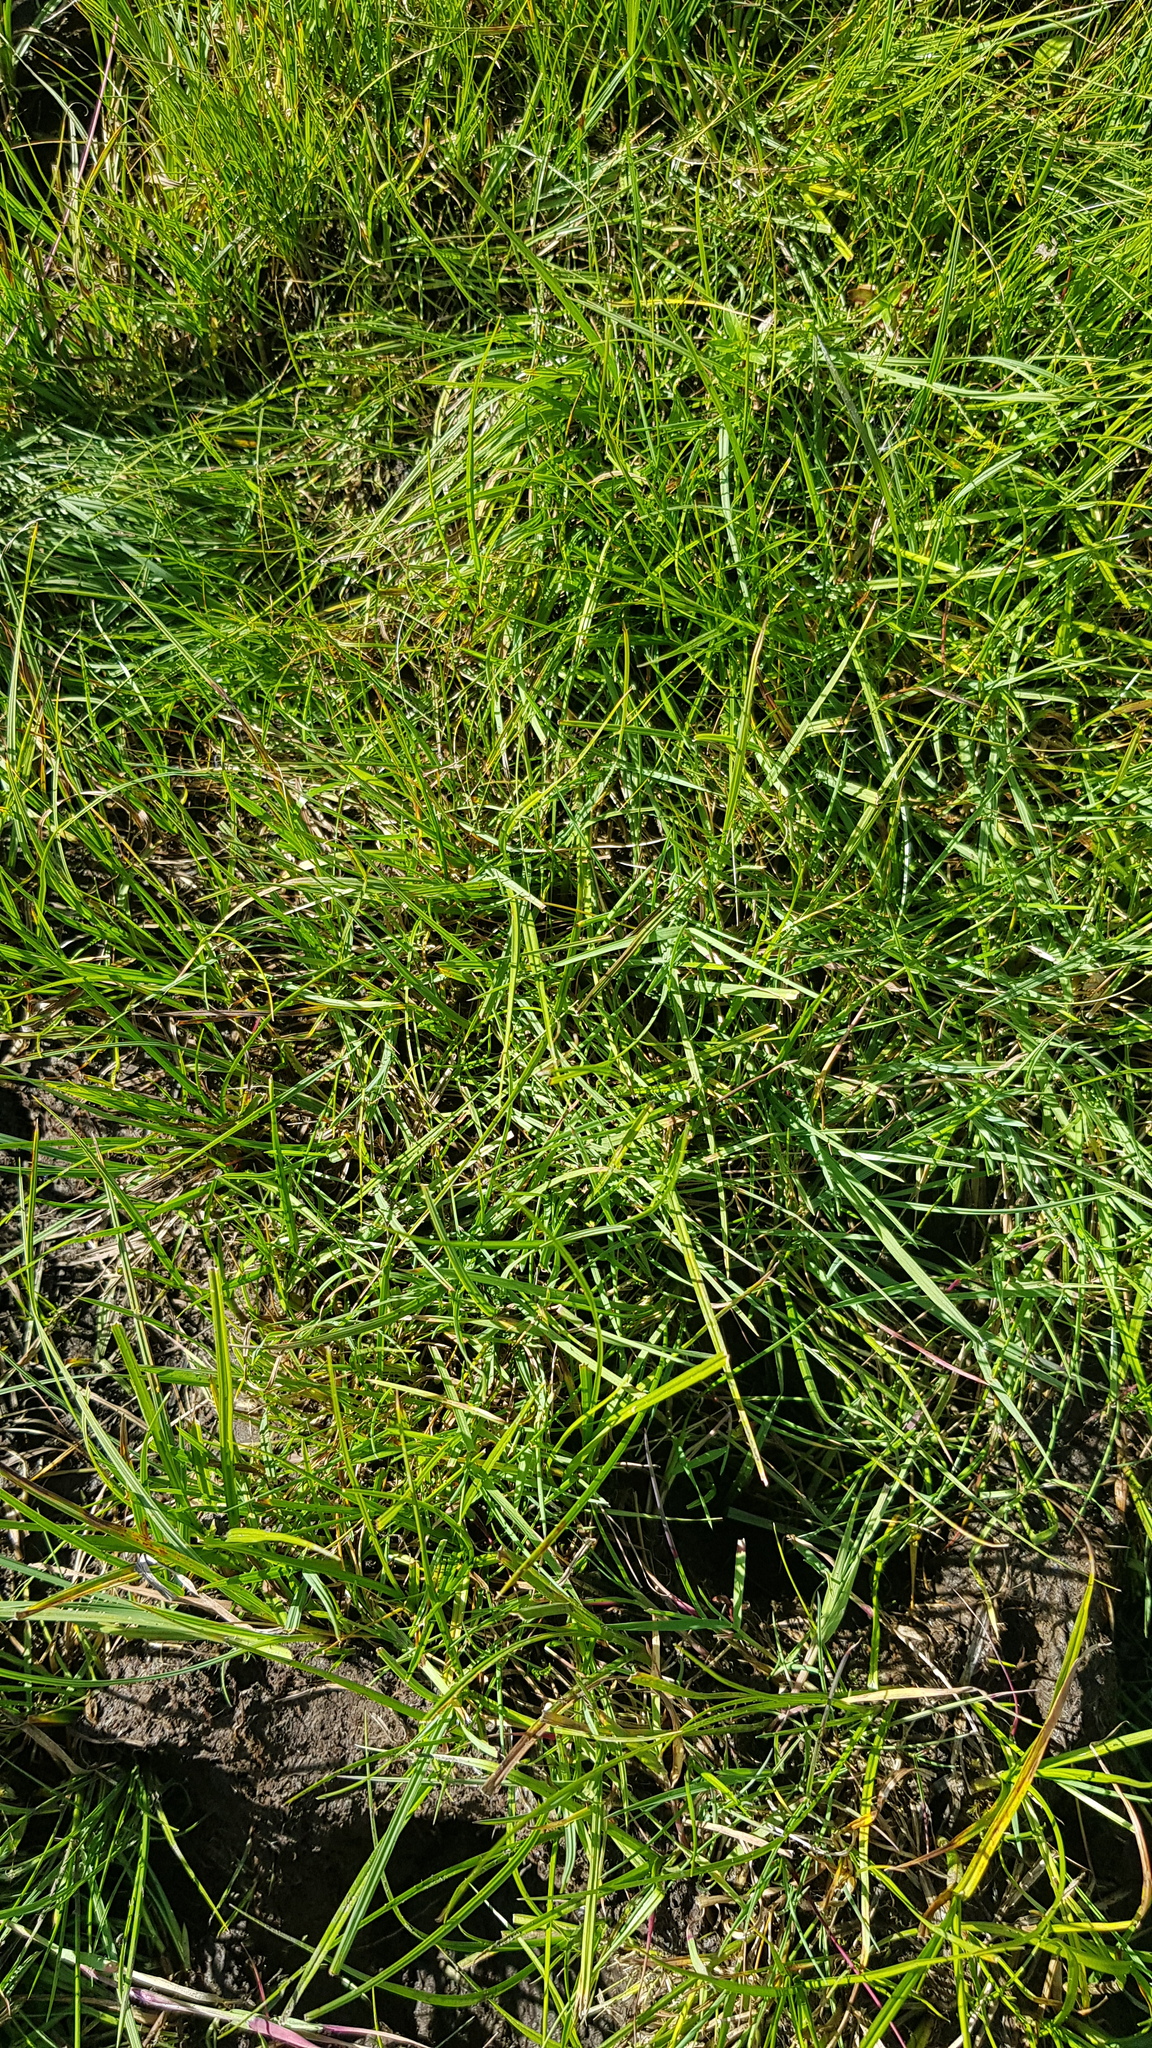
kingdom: Plantae
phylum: Tracheophyta
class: Liliopsida
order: Poales
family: Cyperaceae
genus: Carex
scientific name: Carex duriuscula
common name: Involute-leaved sedge
